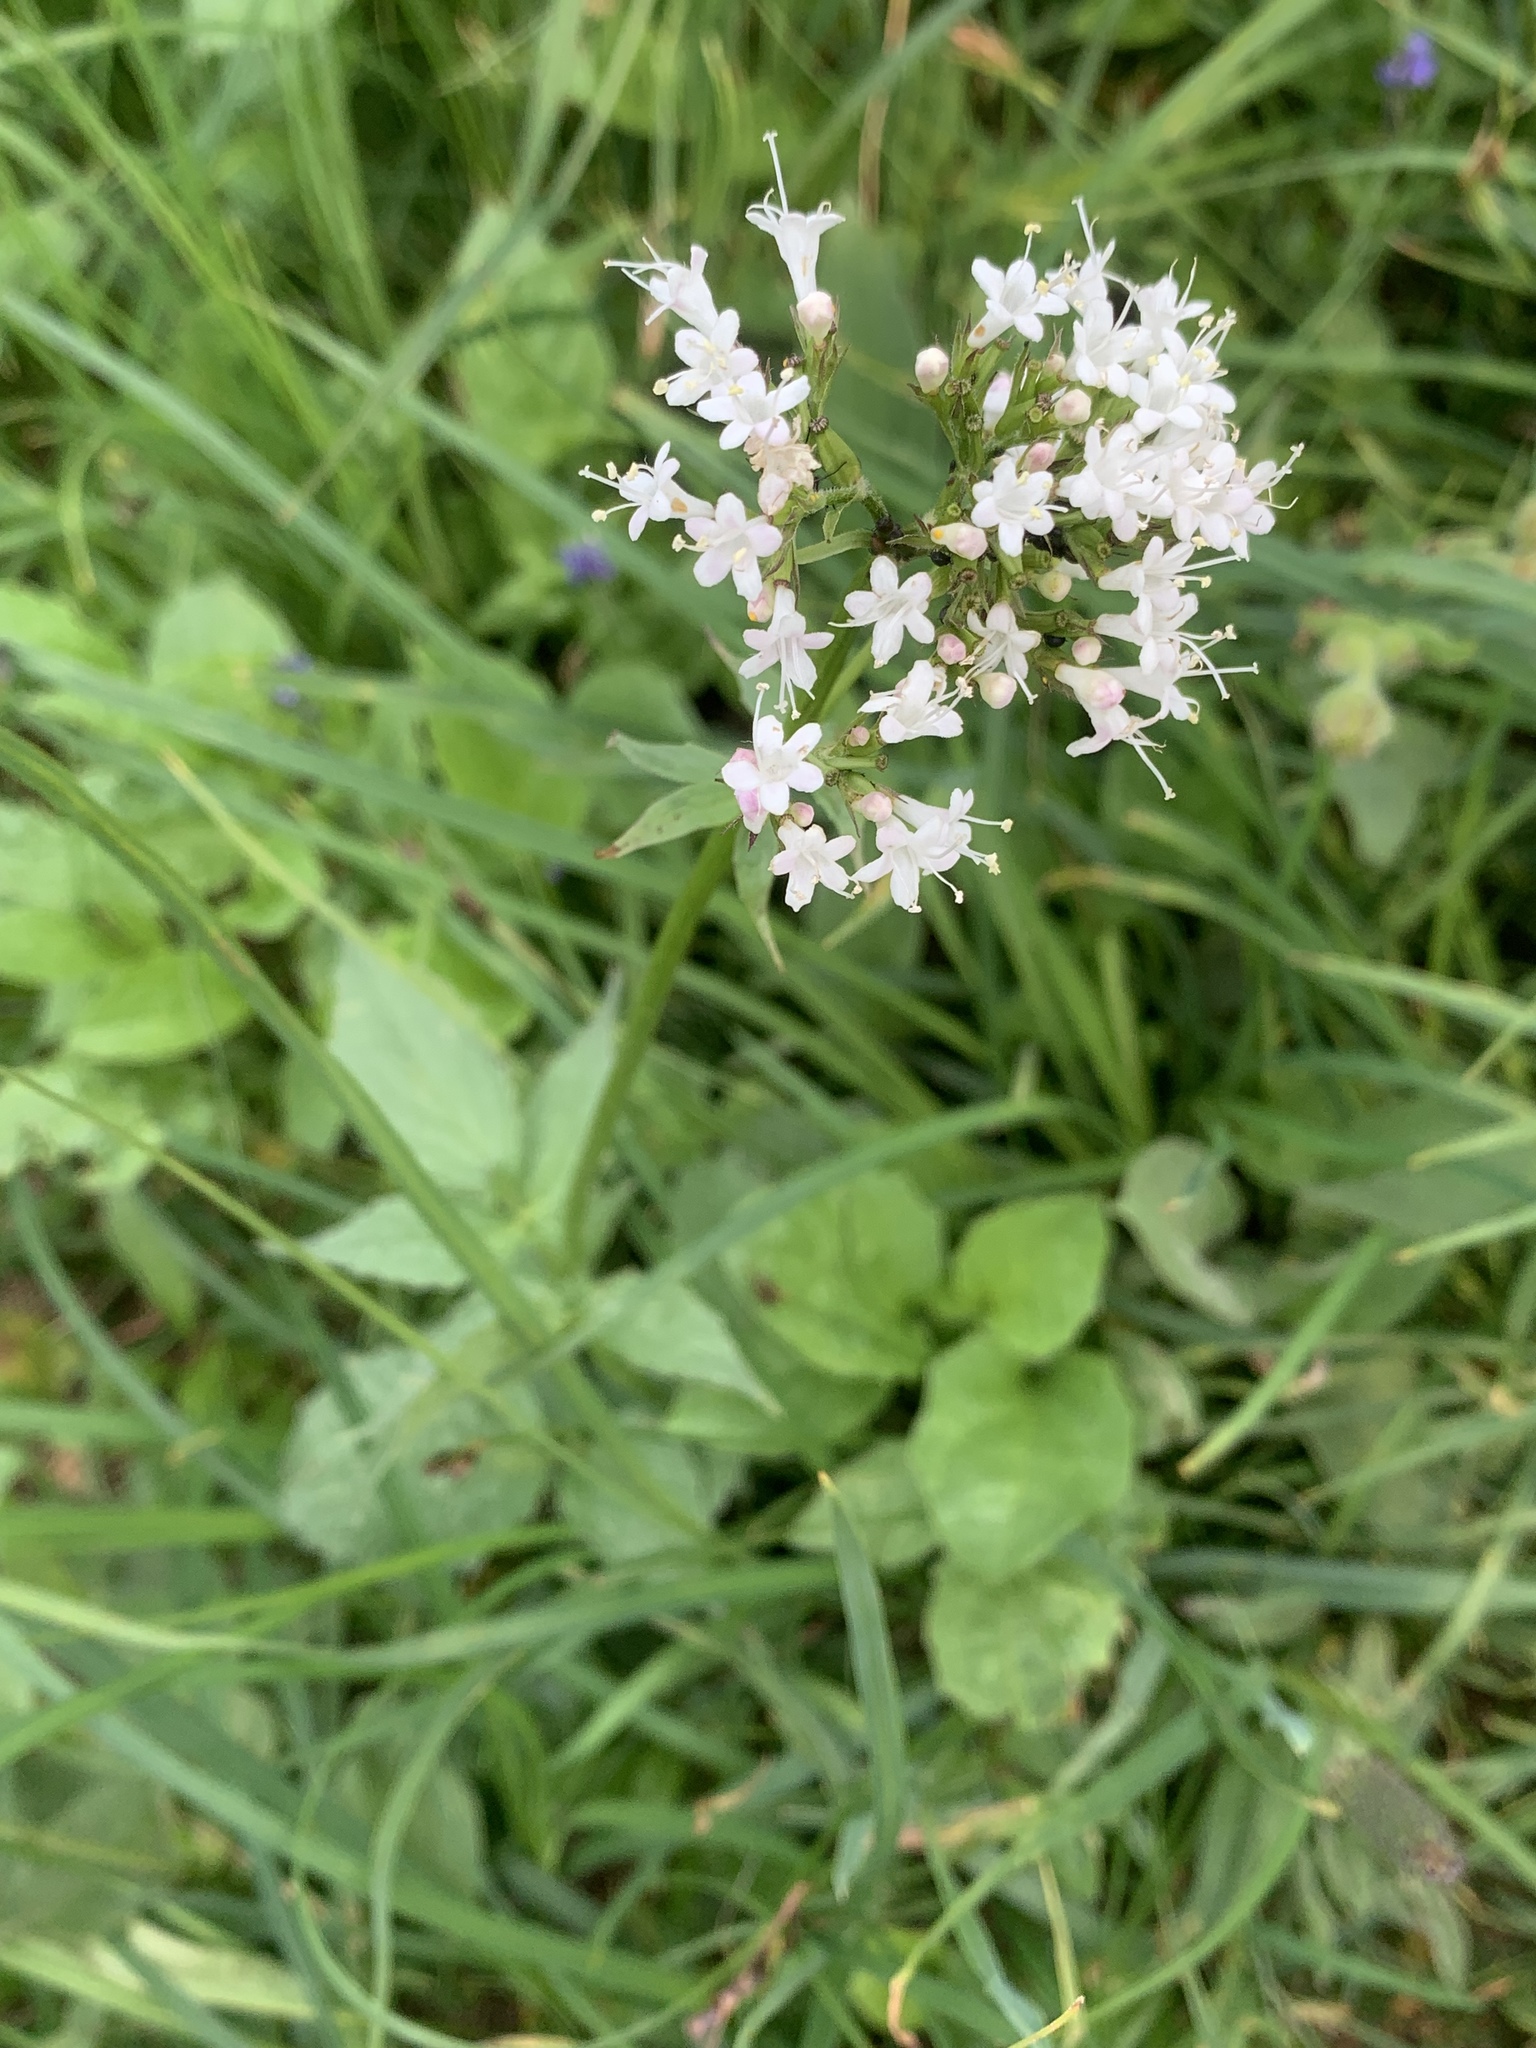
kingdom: Plantae
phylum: Tracheophyta
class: Magnoliopsida
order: Dipsacales
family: Caprifoliaceae
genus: Valeriana
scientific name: Valeriana sitchensis
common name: Pacific valerian
